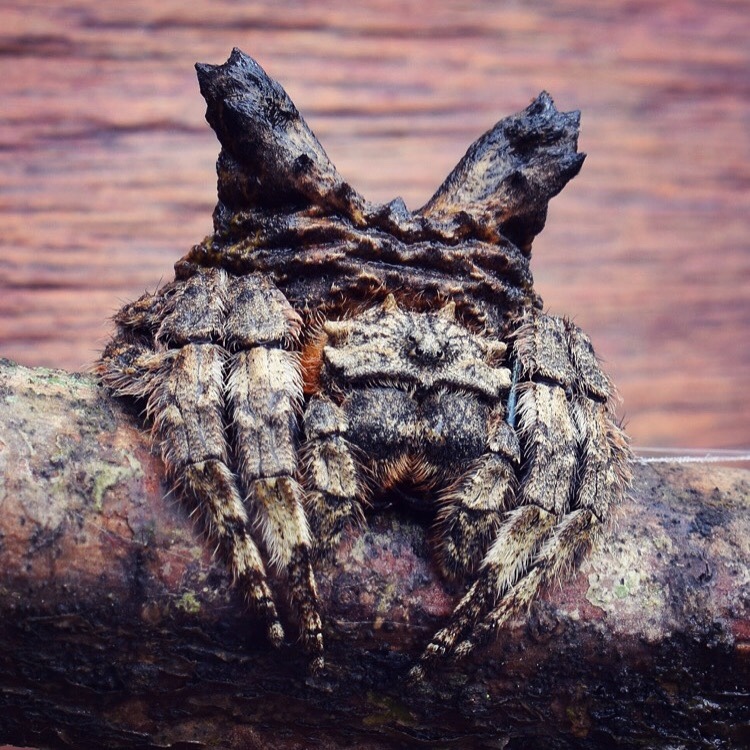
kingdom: Animalia
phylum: Arthropoda
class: Arachnida
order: Araneae
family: Araneidae
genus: Caerostris
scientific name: Caerostris sexcuspidata
